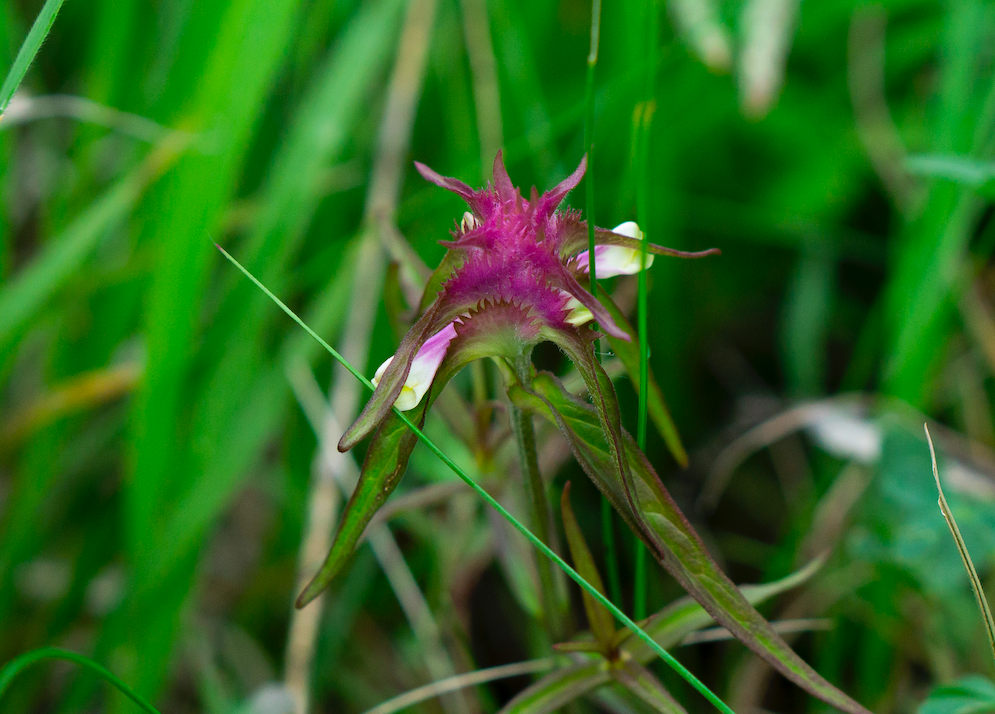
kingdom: Plantae
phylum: Tracheophyta
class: Magnoliopsida
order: Lamiales
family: Orobanchaceae
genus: Melampyrum
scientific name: Melampyrum cristatum
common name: Crested cow-wheat
